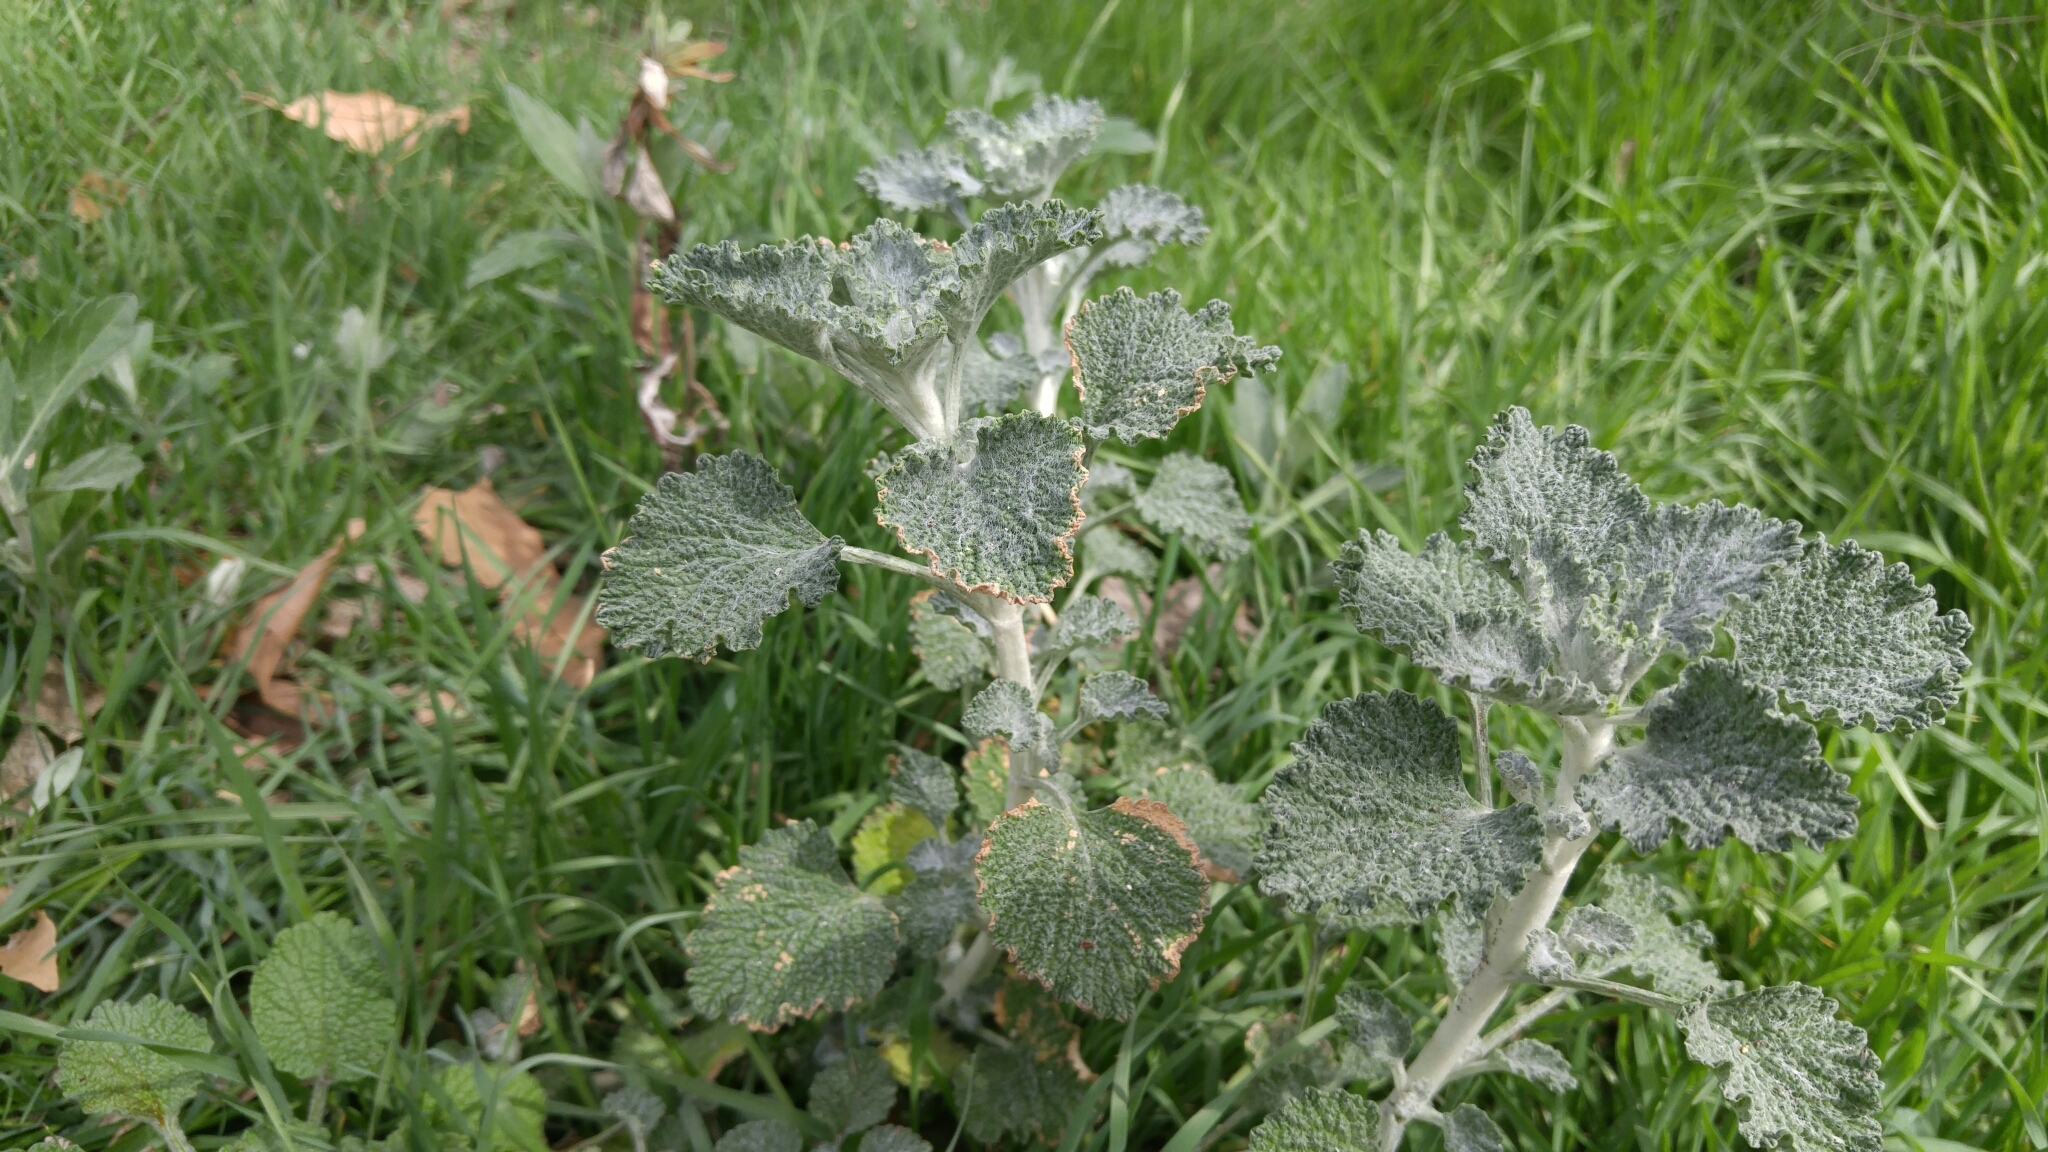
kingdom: Plantae
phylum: Tracheophyta
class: Magnoliopsida
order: Lamiales
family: Lamiaceae
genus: Marrubium
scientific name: Marrubium vulgare
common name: Horehound
